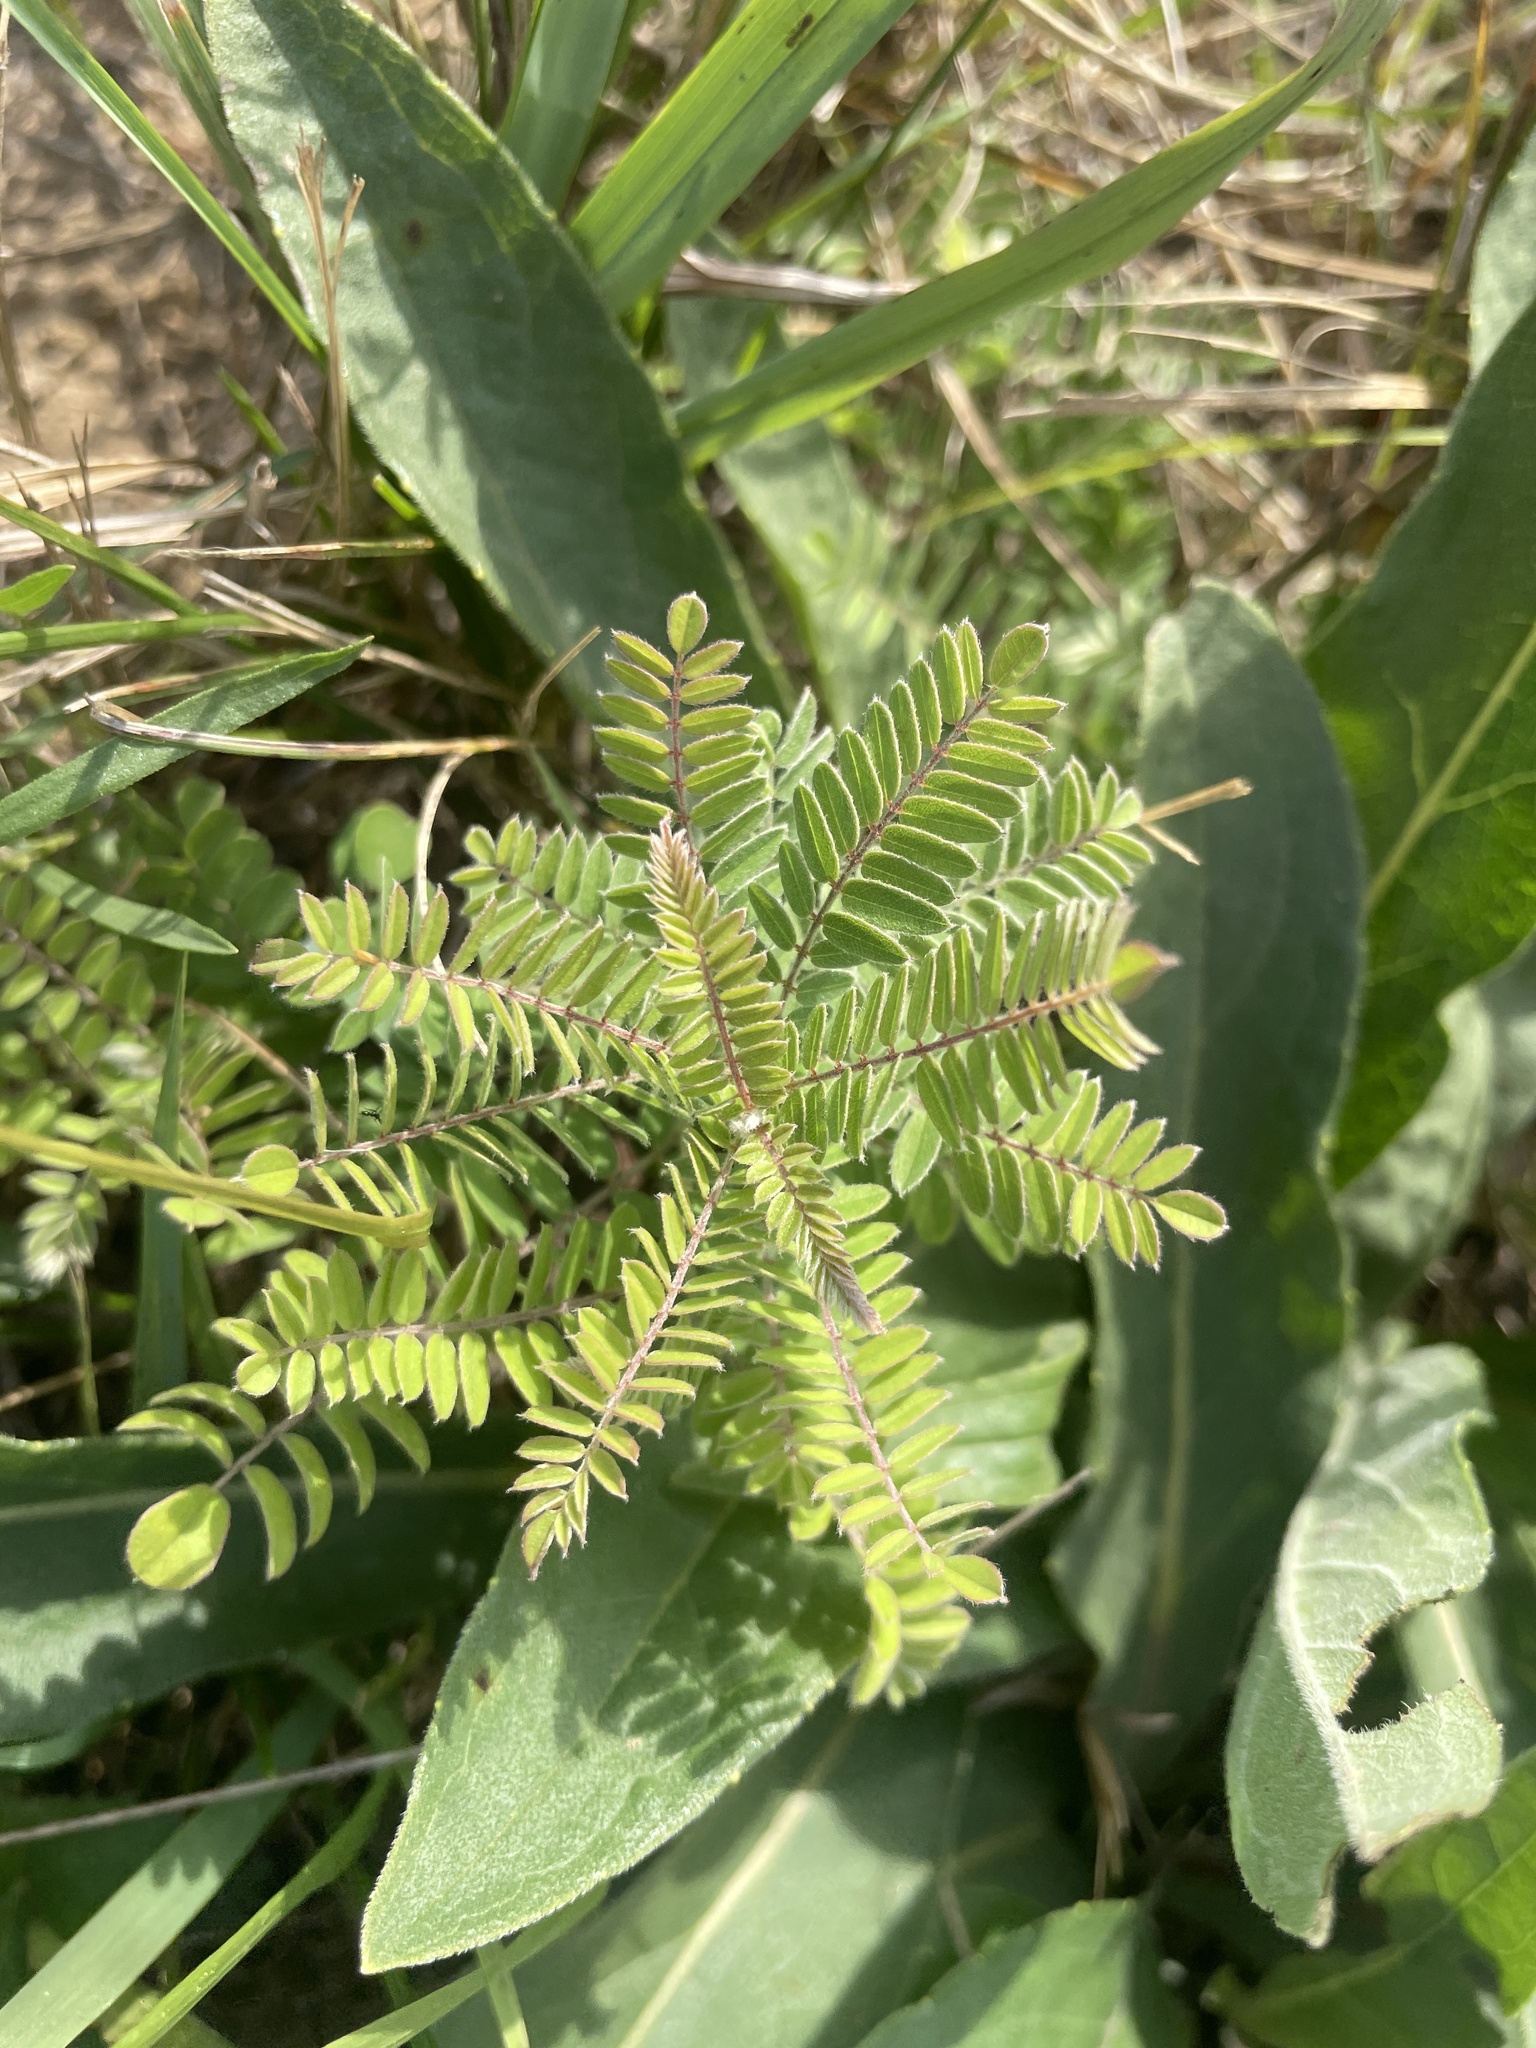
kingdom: Plantae
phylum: Tracheophyta
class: Magnoliopsida
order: Fabales
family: Fabaceae
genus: Amorpha
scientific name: Amorpha canescens
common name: Leadplant
